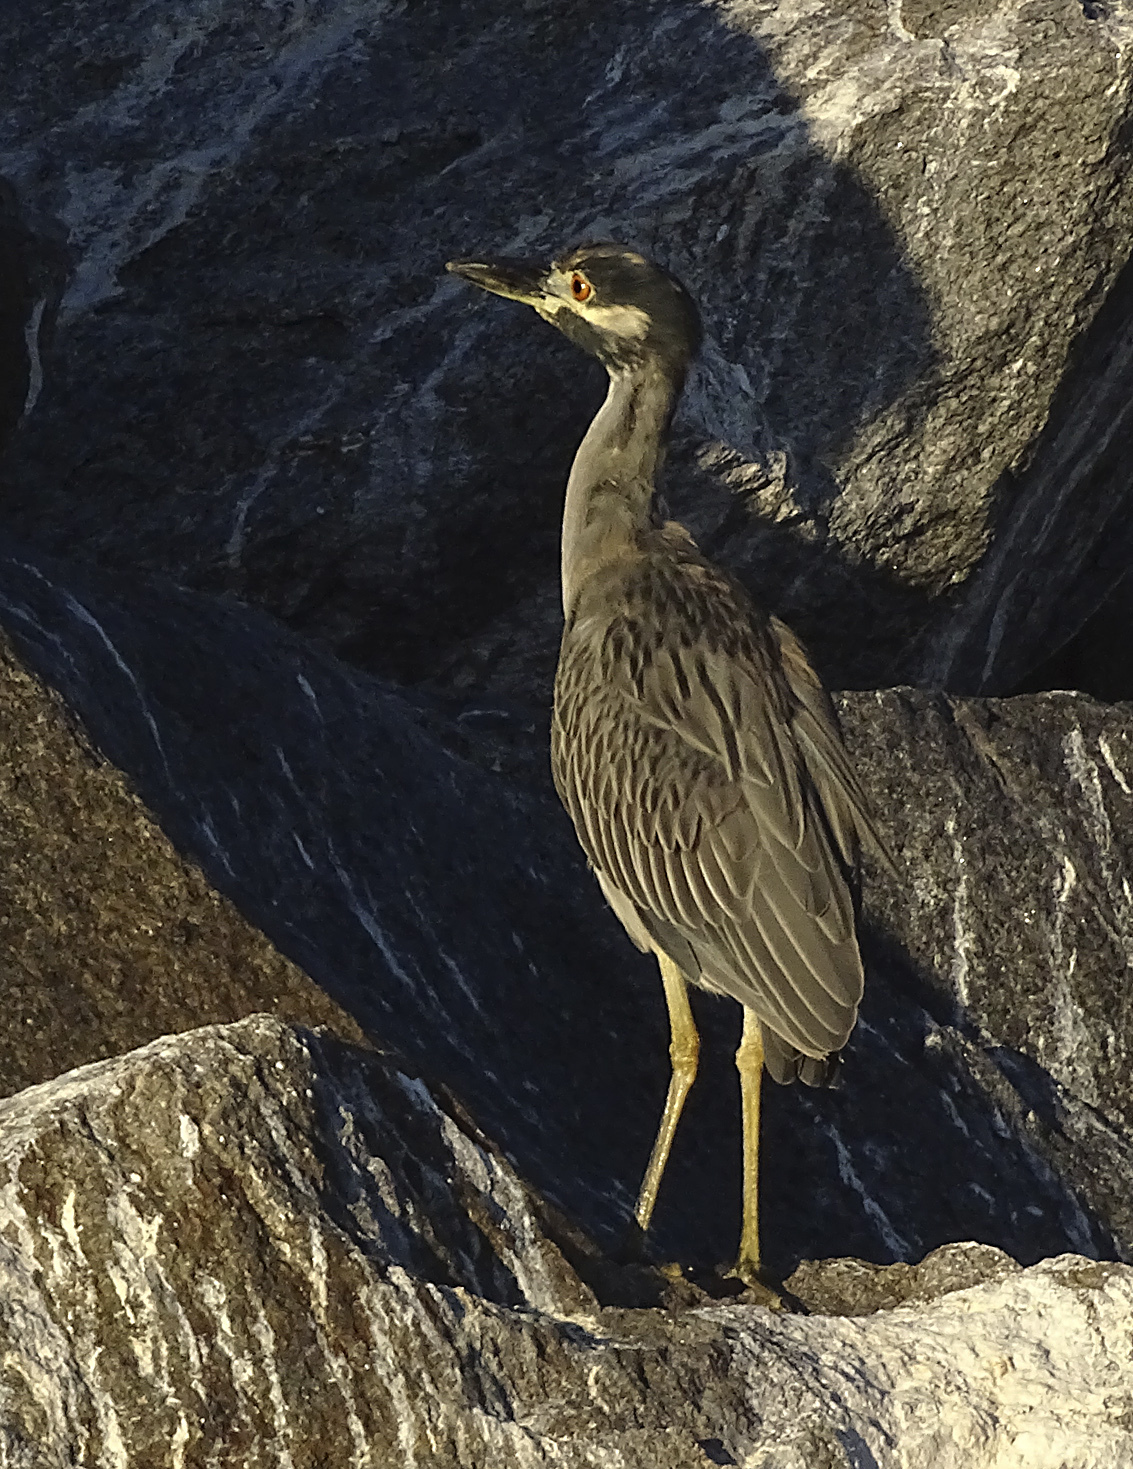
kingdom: Animalia
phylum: Chordata
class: Aves
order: Pelecaniformes
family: Ardeidae
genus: Nyctanassa
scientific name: Nyctanassa violacea
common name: Yellow-crowned night heron
